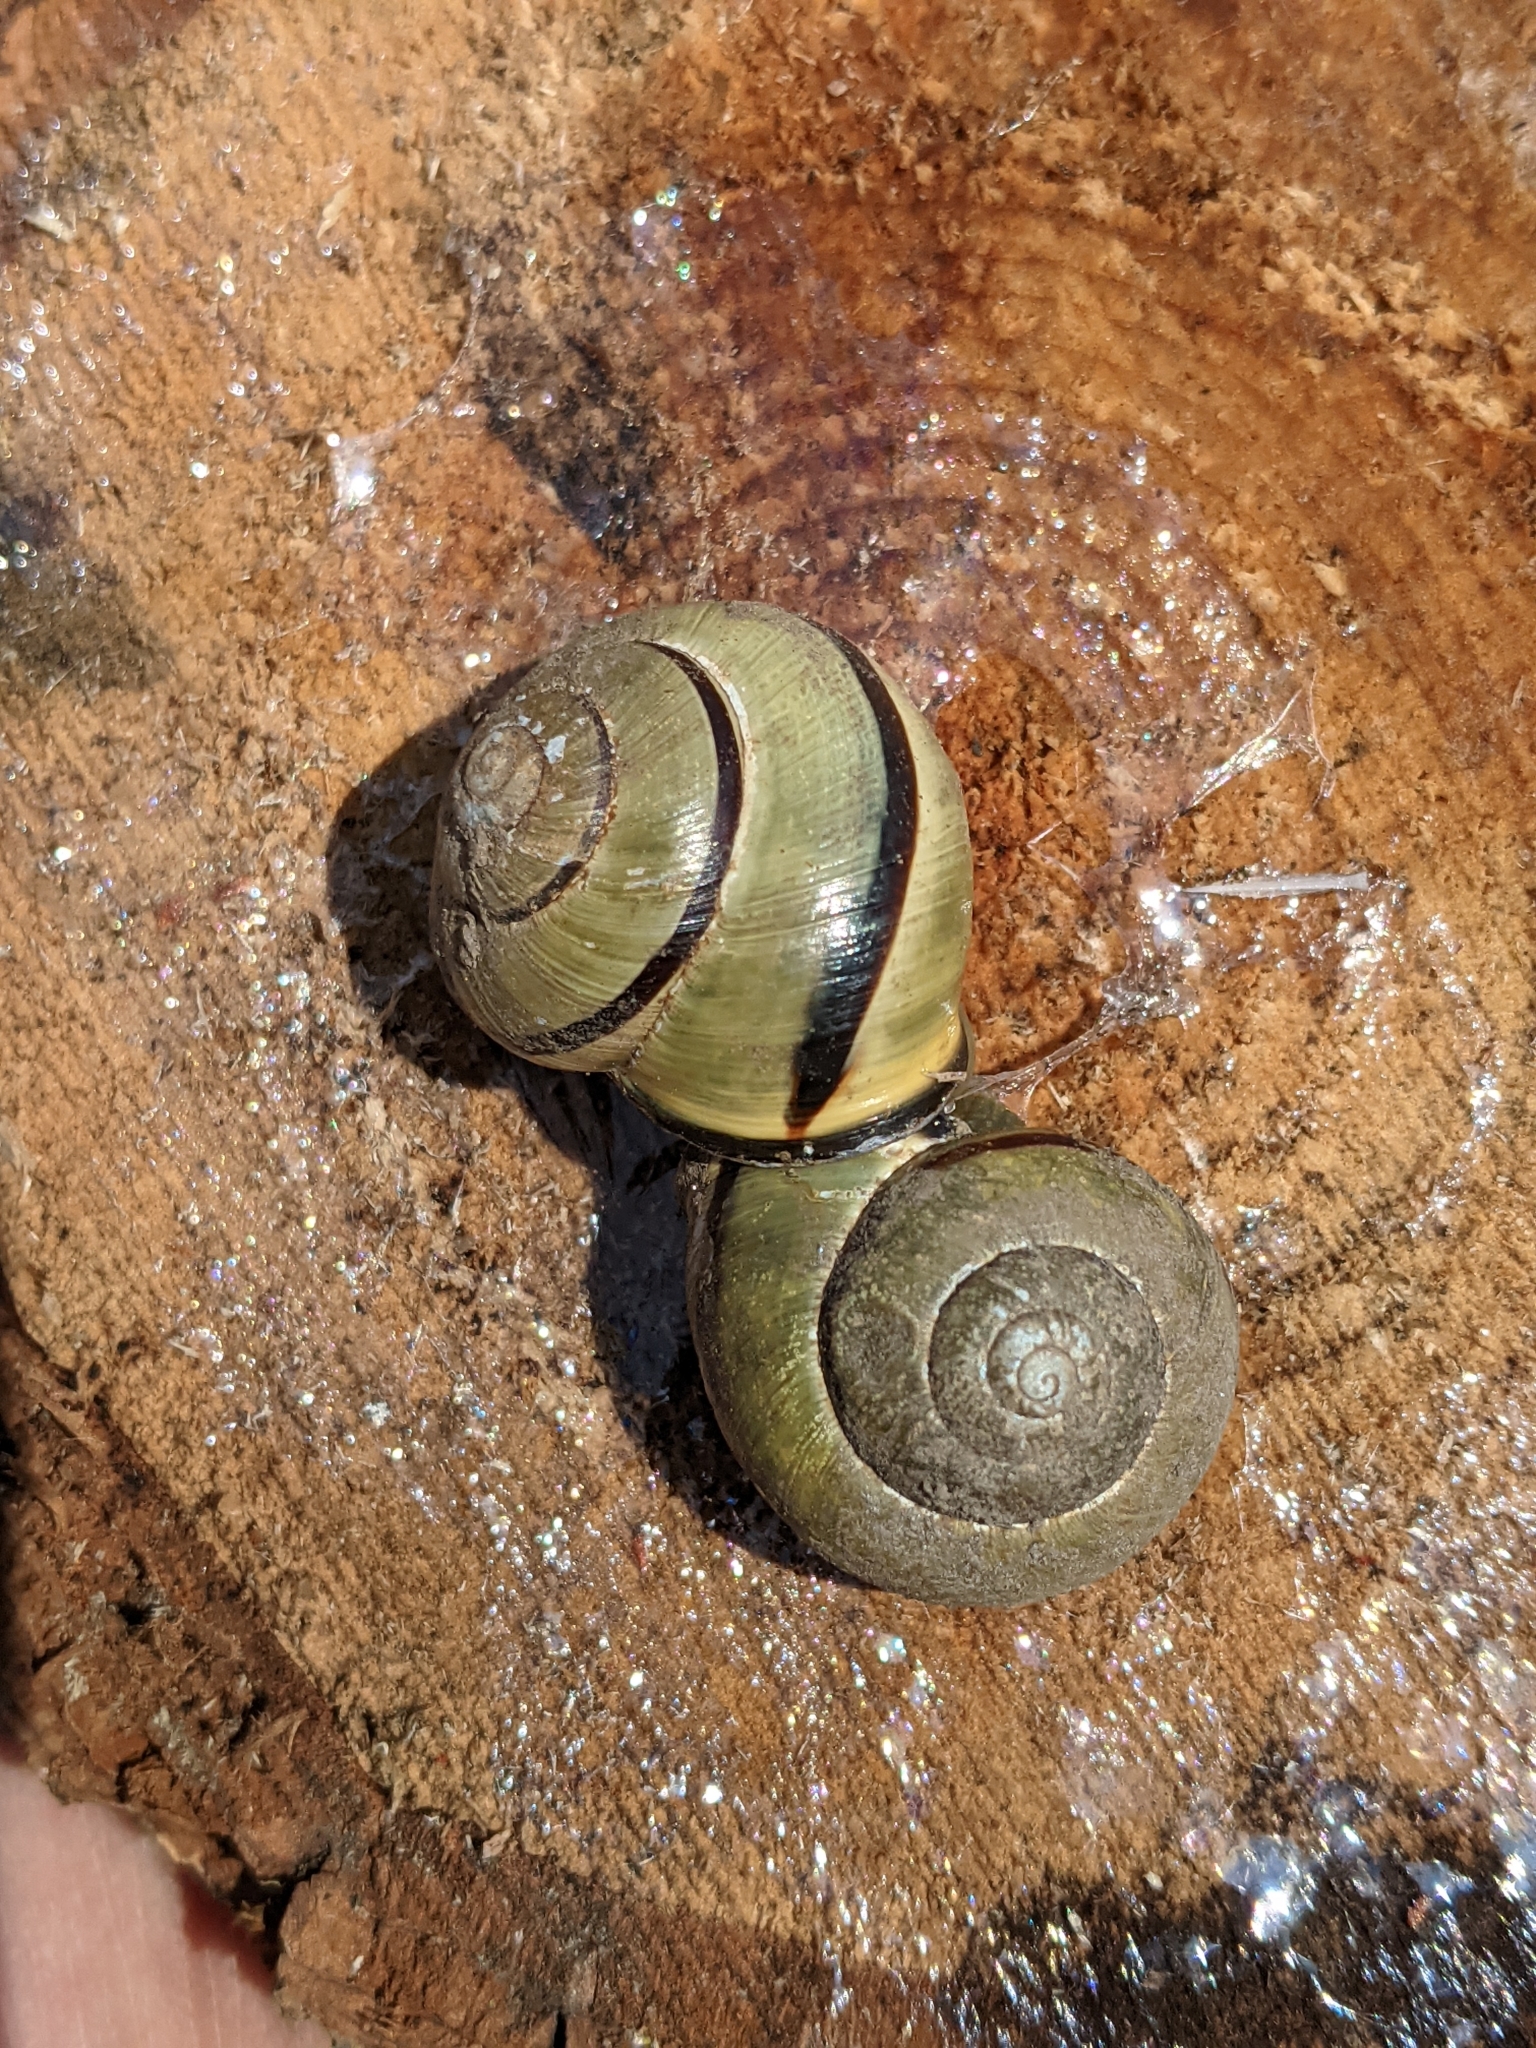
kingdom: Animalia
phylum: Mollusca
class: Gastropoda
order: Stylommatophora
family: Helicidae
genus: Cepaea
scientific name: Cepaea nemoralis
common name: Grovesnail
